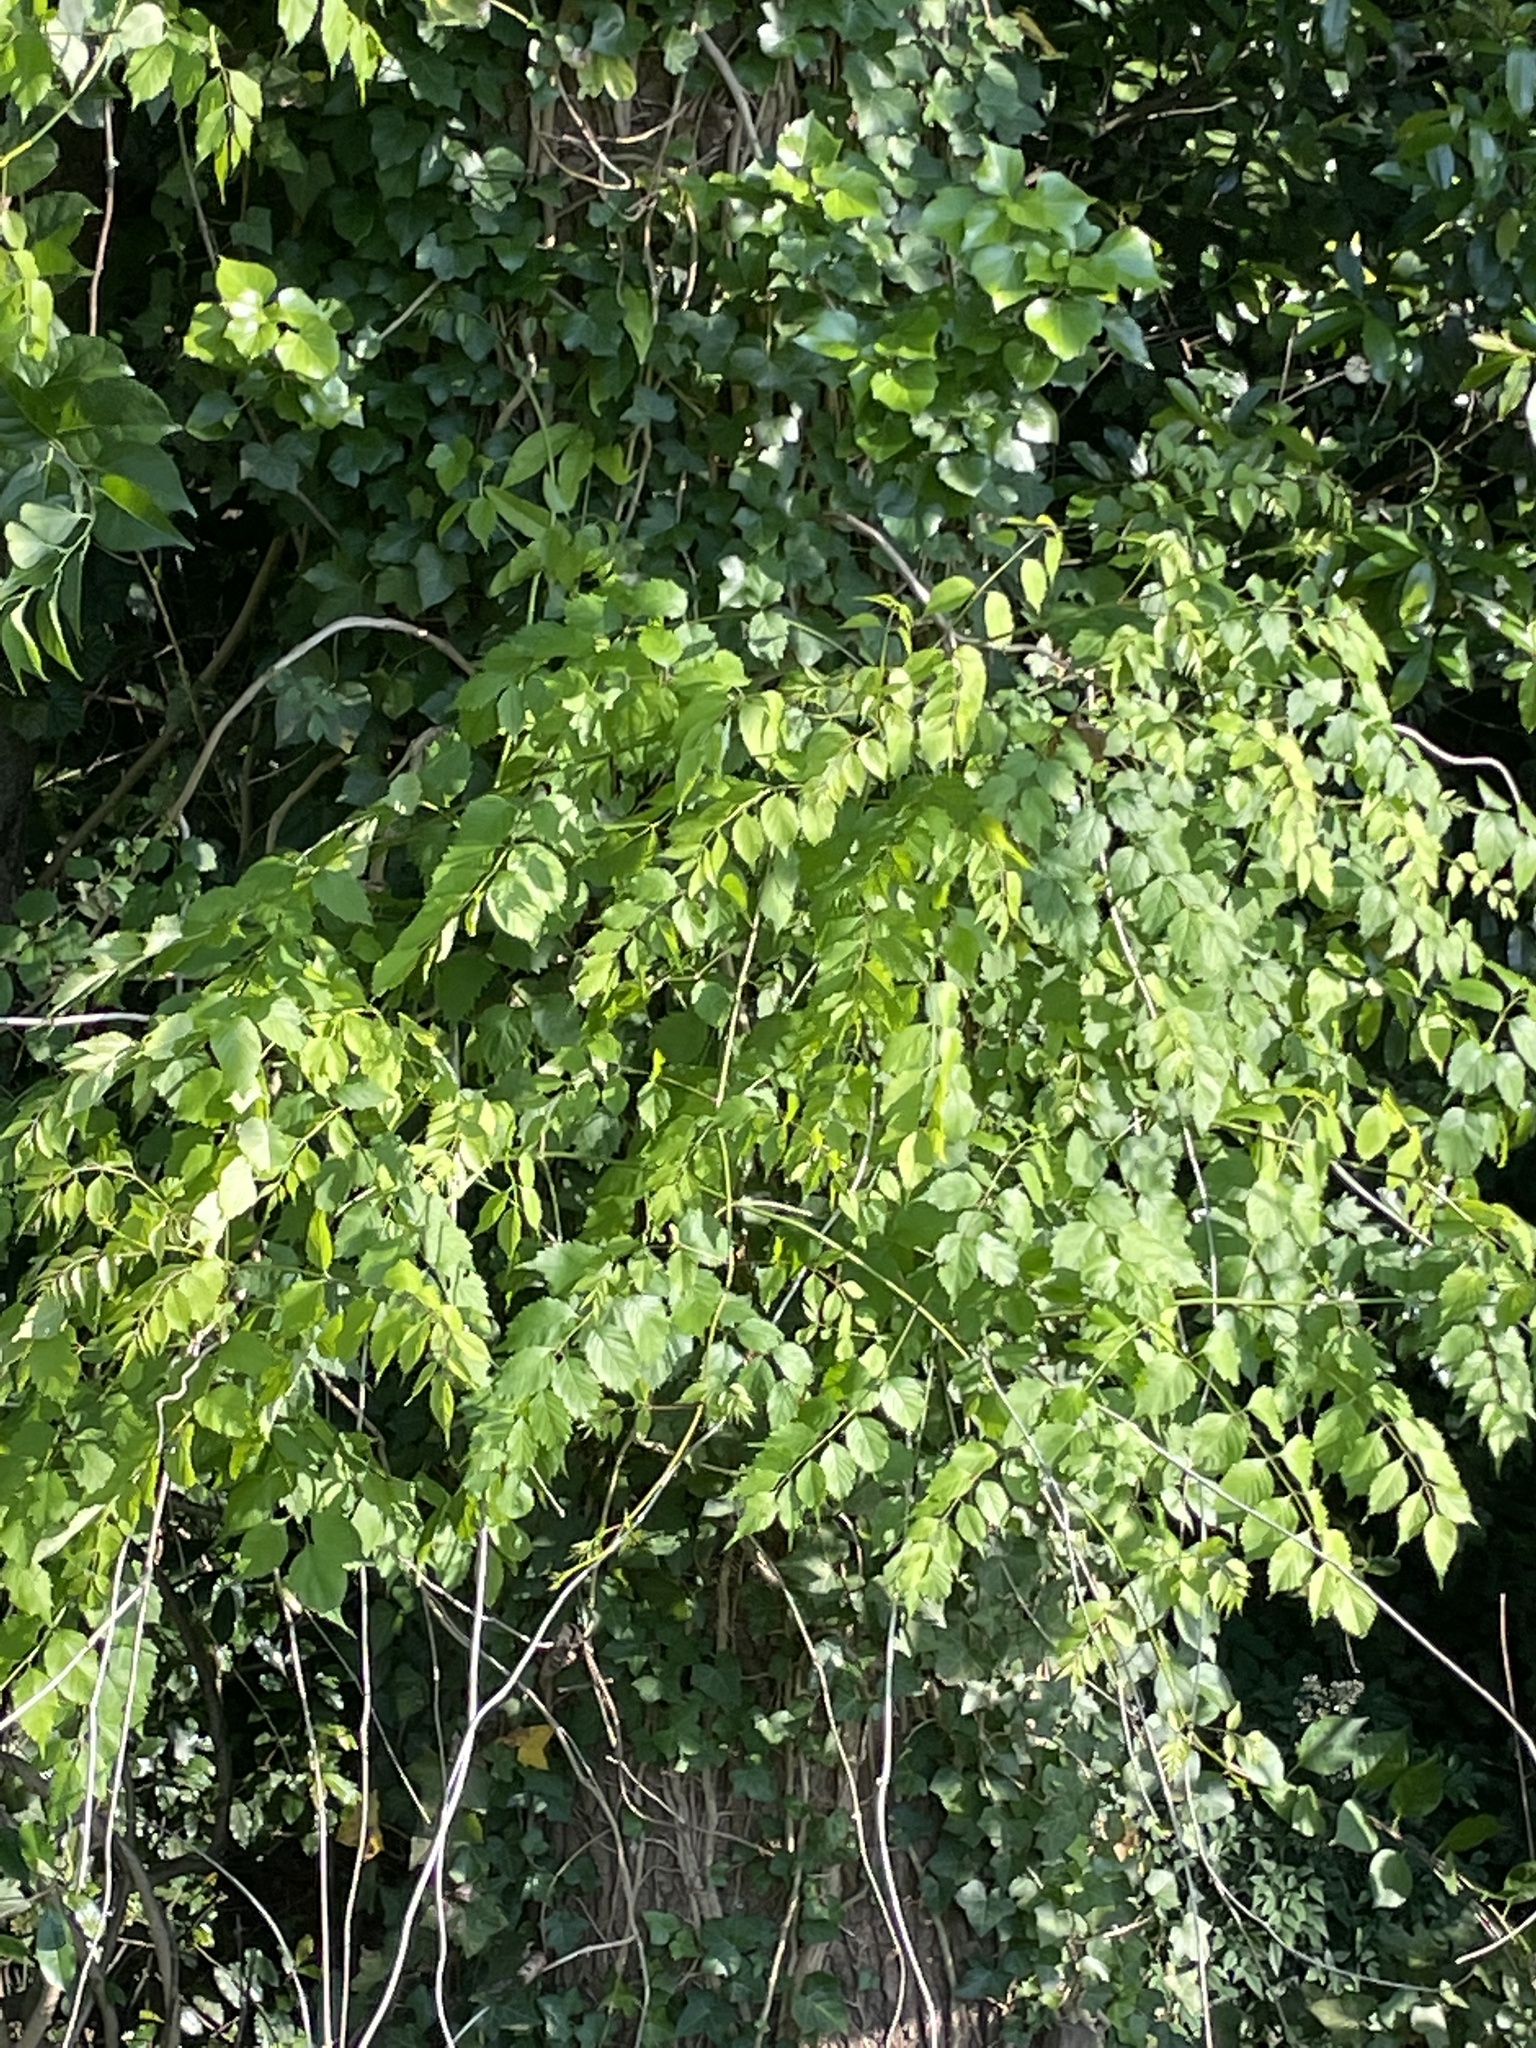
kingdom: Plantae
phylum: Tracheophyta
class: Magnoliopsida
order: Lamiales
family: Bignoniaceae
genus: Campsis
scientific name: Campsis radicans
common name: Trumpet-creeper
